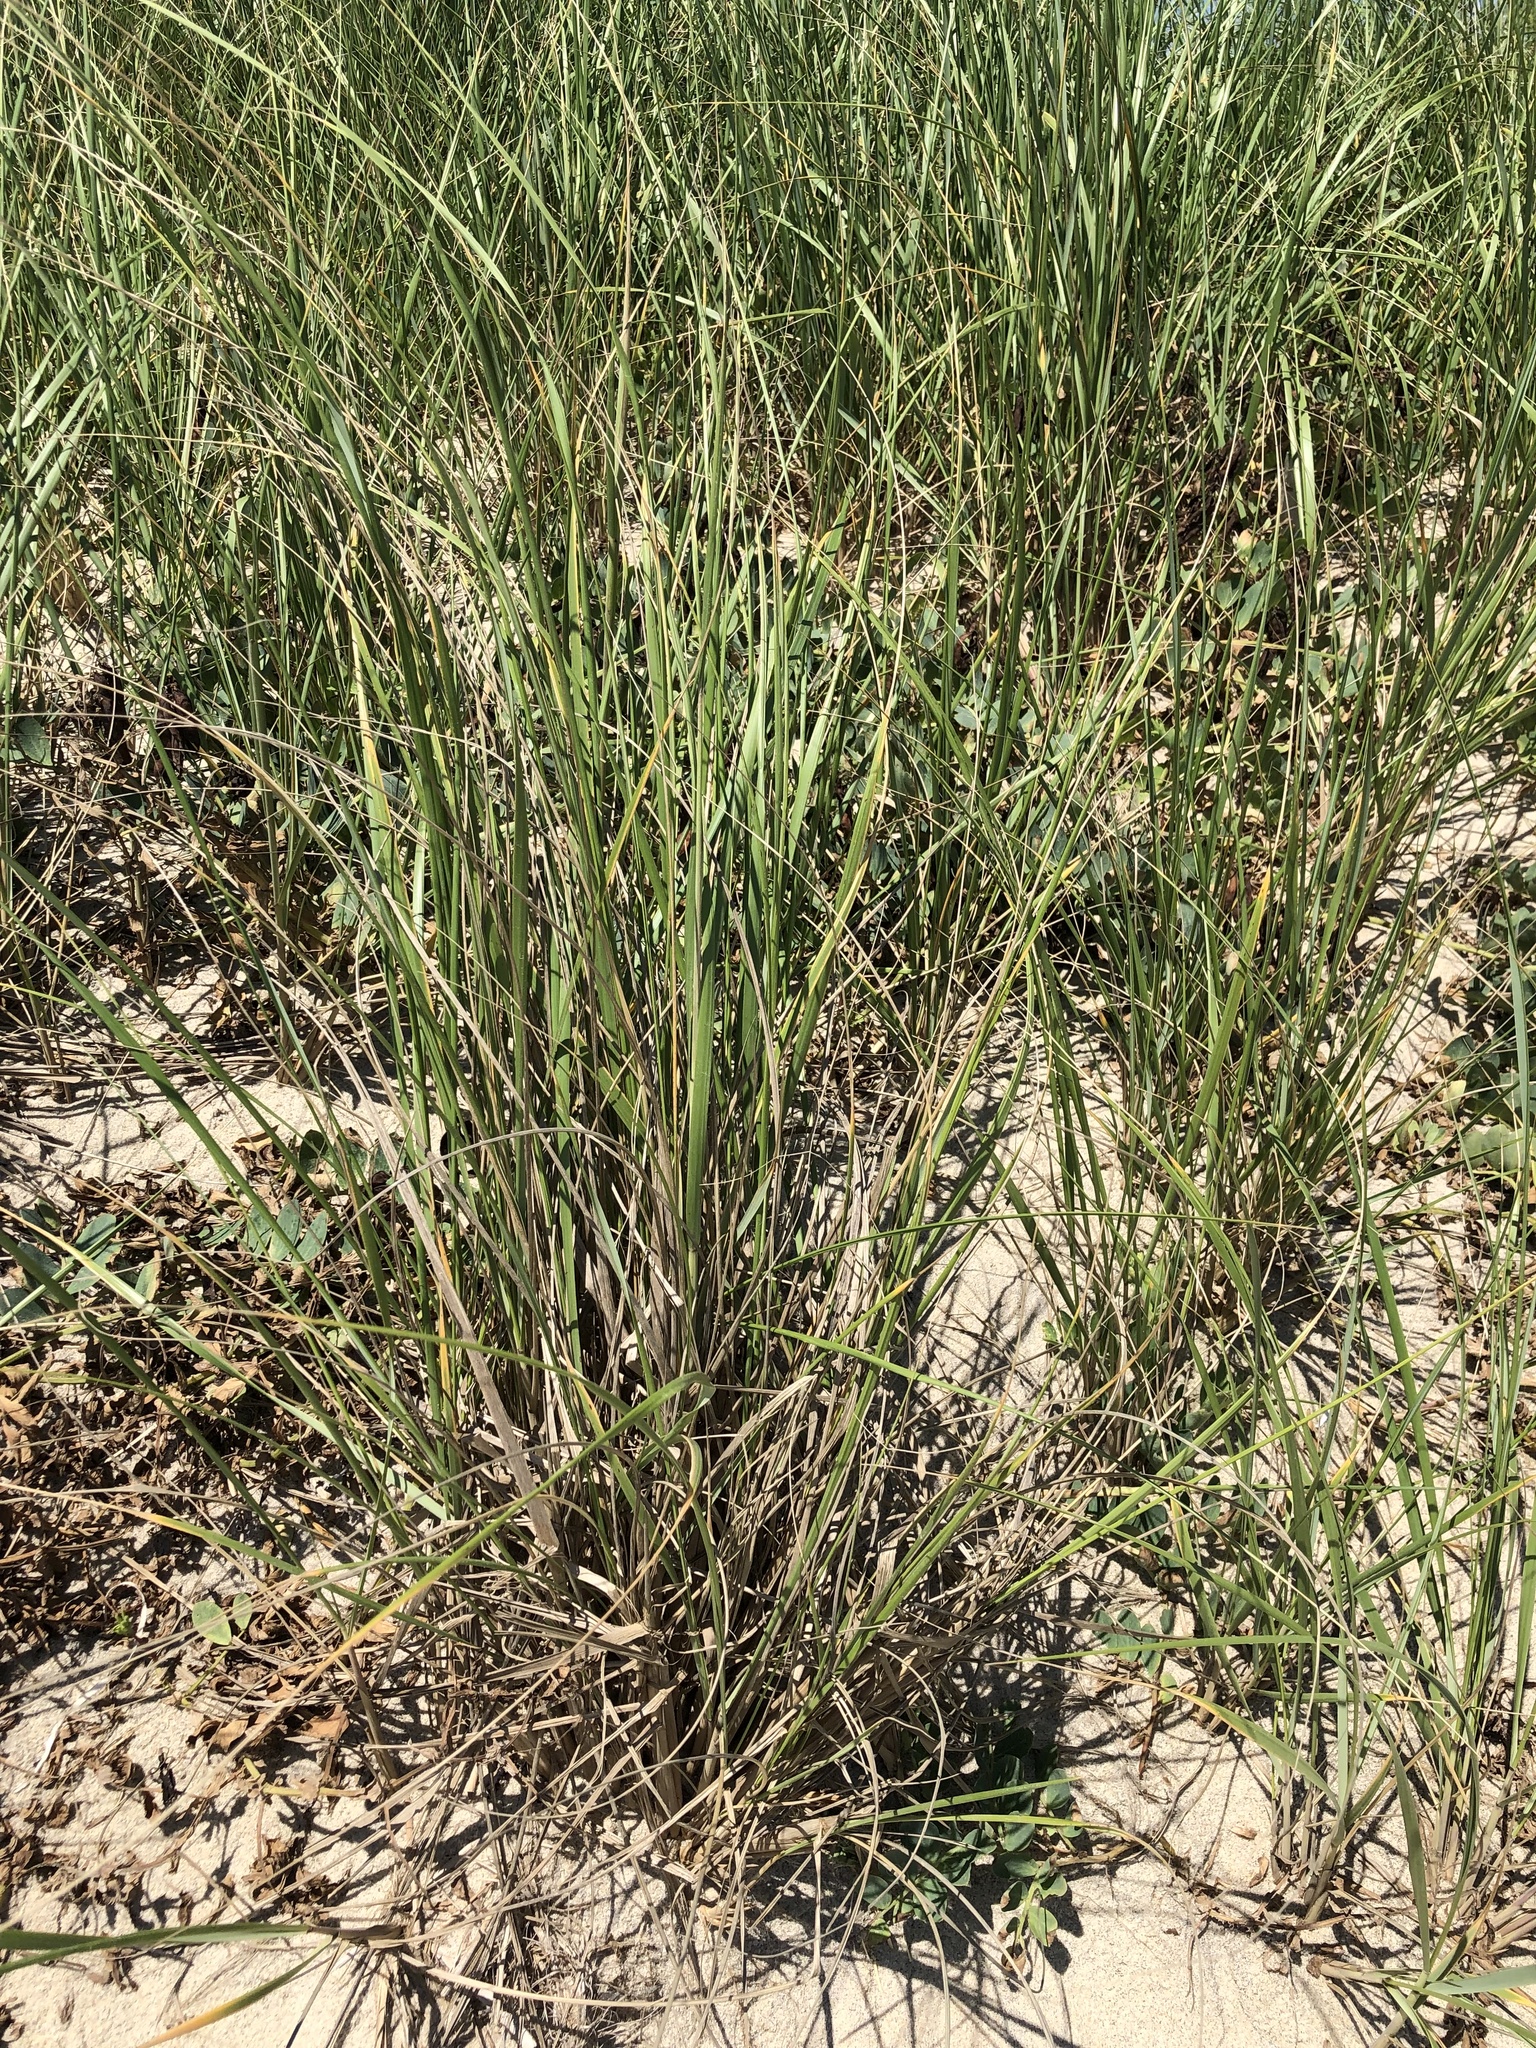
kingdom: Plantae
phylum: Tracheophyta
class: Liliopsida
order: Poales
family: Poaceae
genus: Calamagrostis
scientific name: Calamagrostis breviligulata
